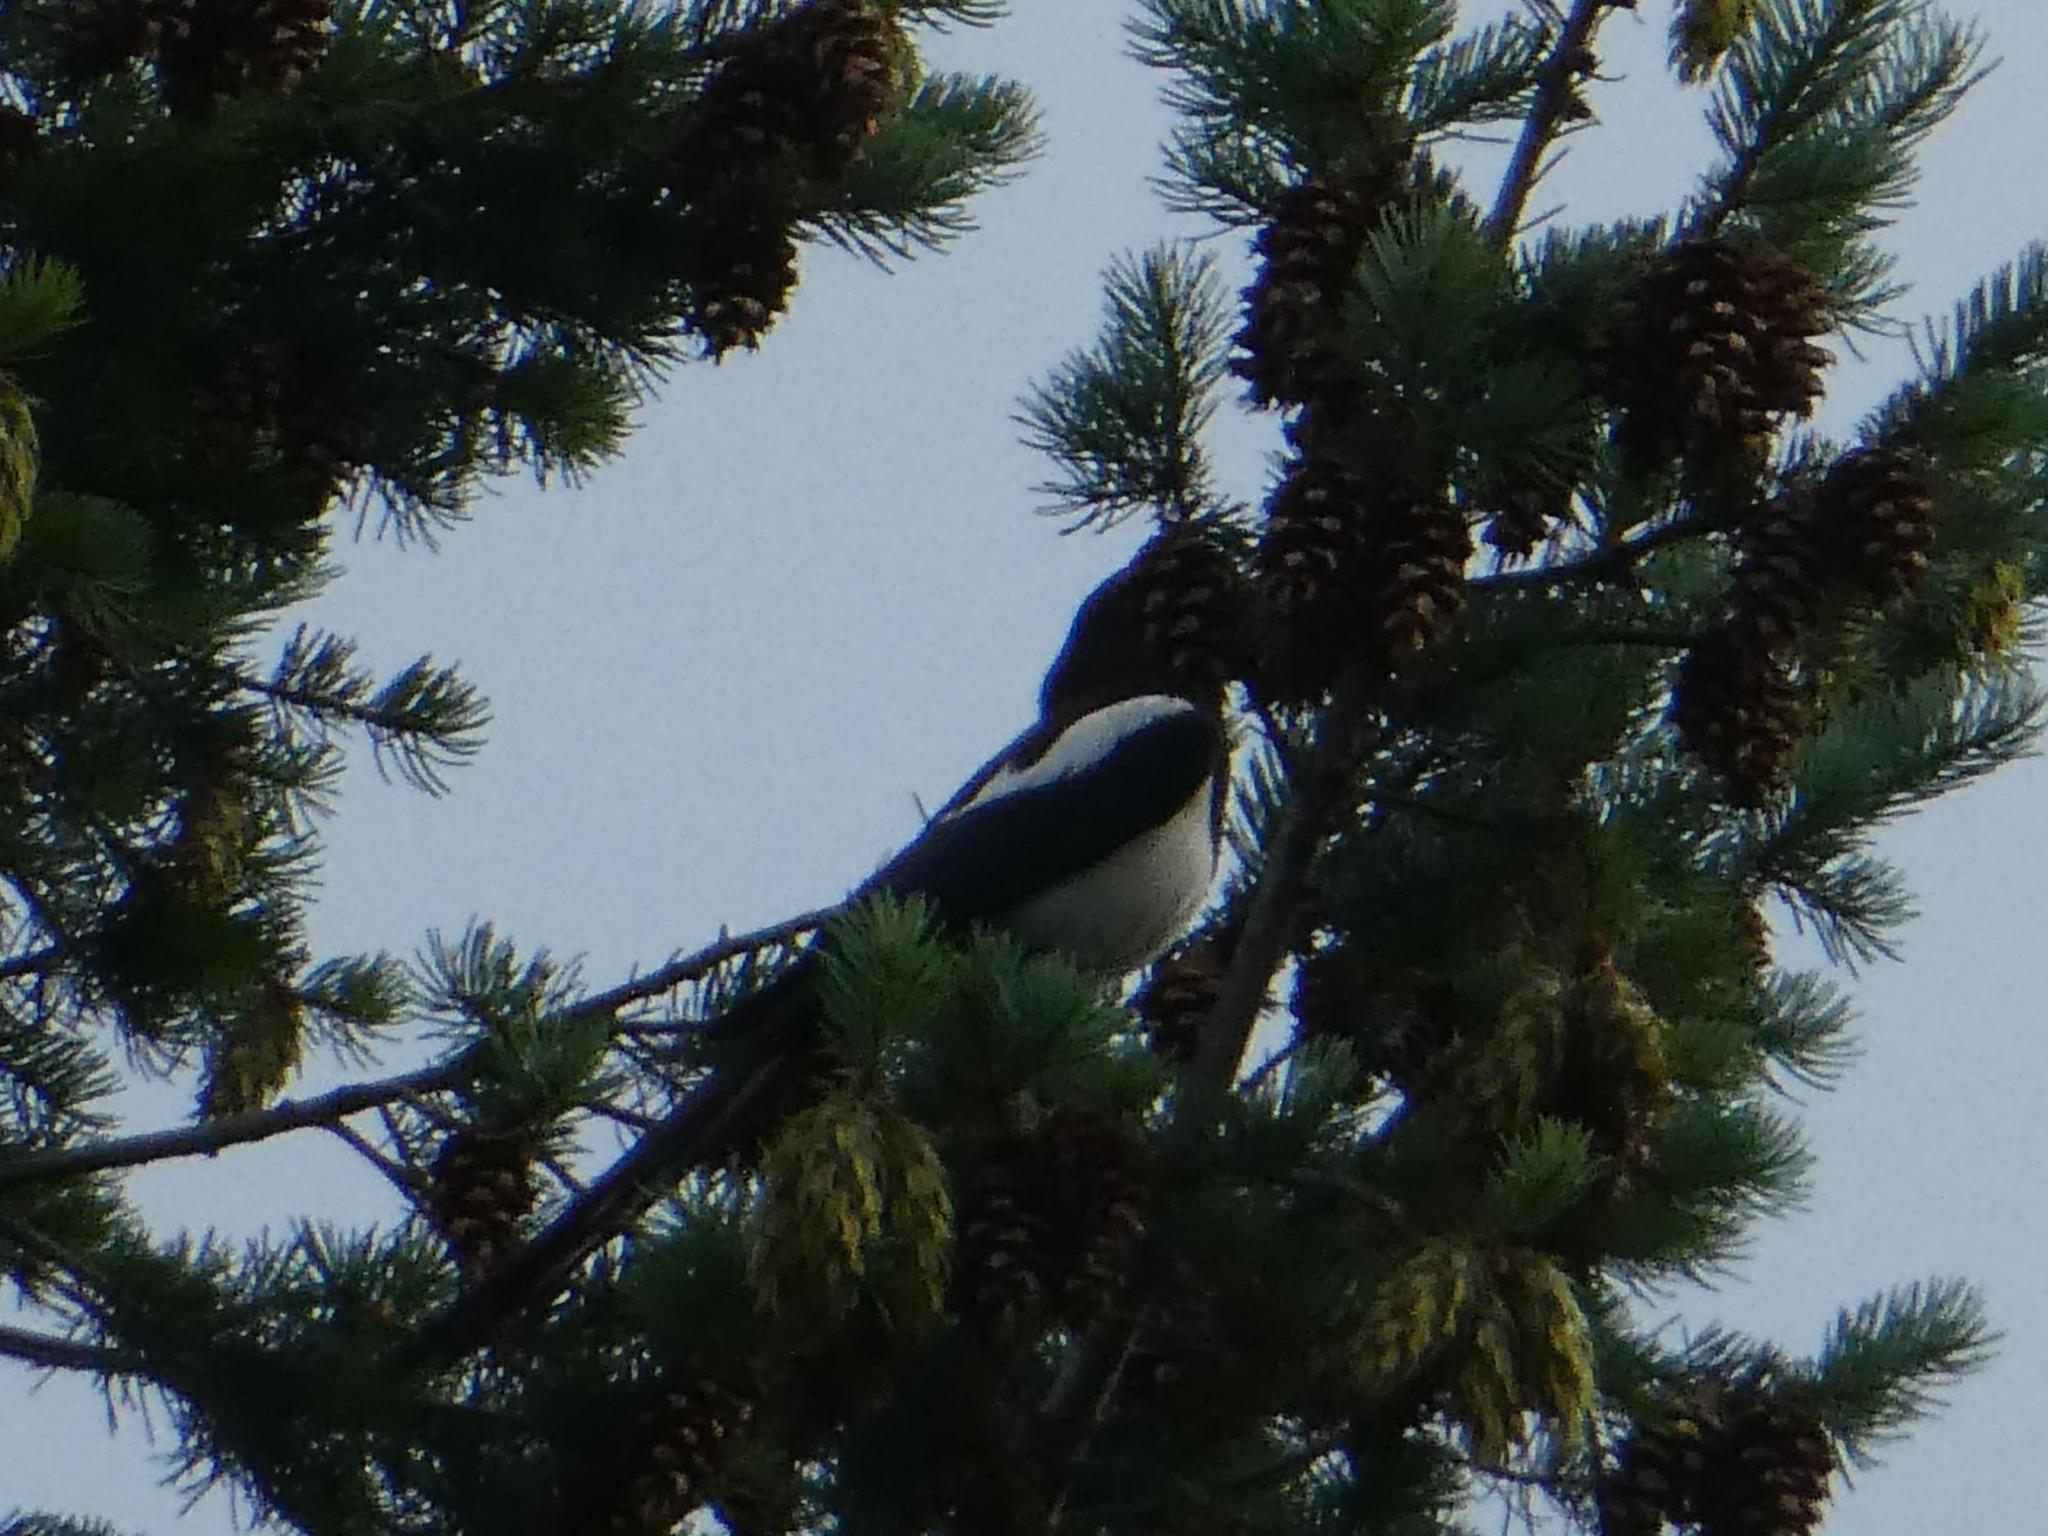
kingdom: Animalia
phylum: Chordata
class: Aves
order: Passeriformes
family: Corvidae
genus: Pica
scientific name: Pica pica
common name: Eurasian magpie
